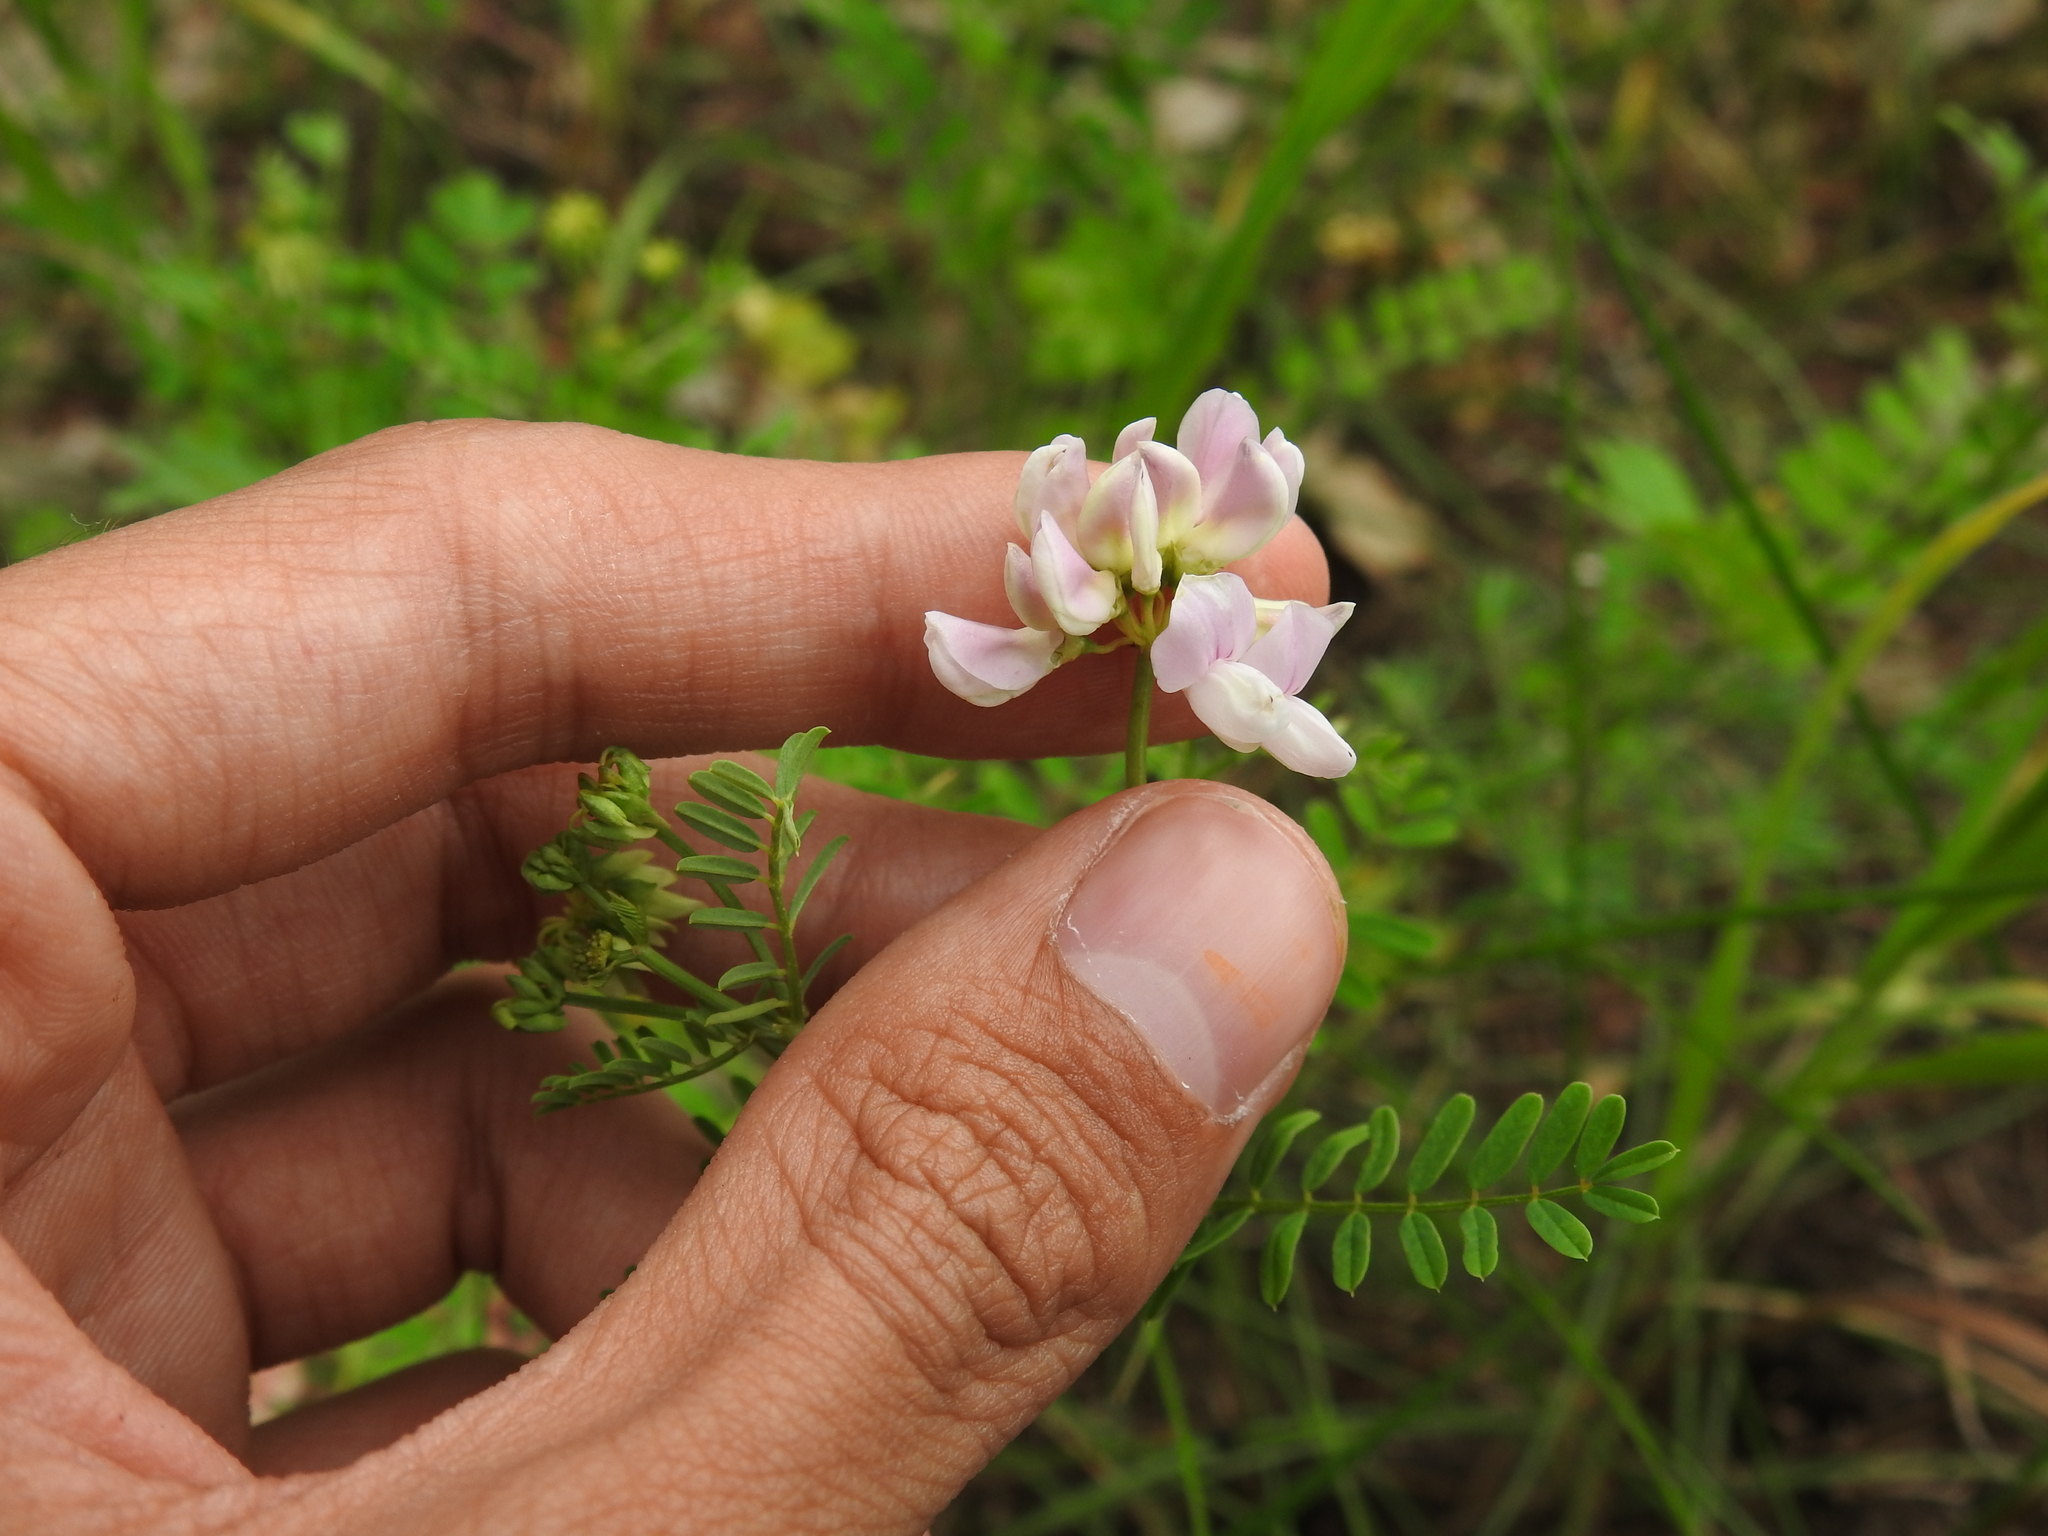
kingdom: Plantae
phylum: Tracheophyta
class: Magnoliopsida
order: Fabales
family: Fabaceae
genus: Coronilla
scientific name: Coronilla varia
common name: Crownvetch
